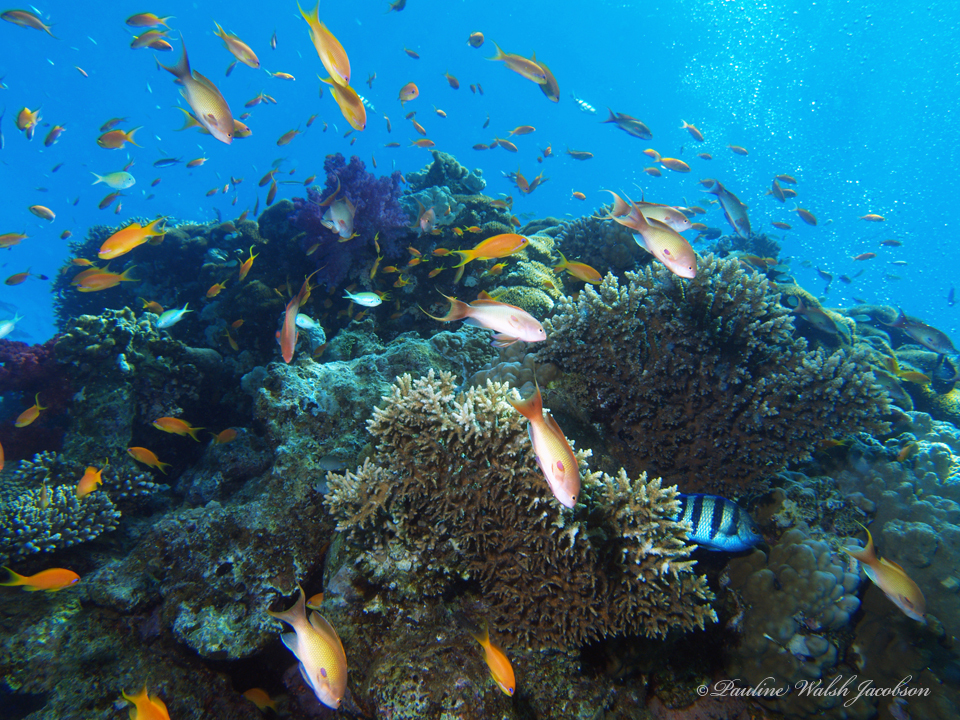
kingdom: Animalia
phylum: Chordata
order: Perciformes
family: Pomacentridae
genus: Abudefduf
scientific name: Abudefduf vaigiensis
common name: Indo-pacific sergeant
